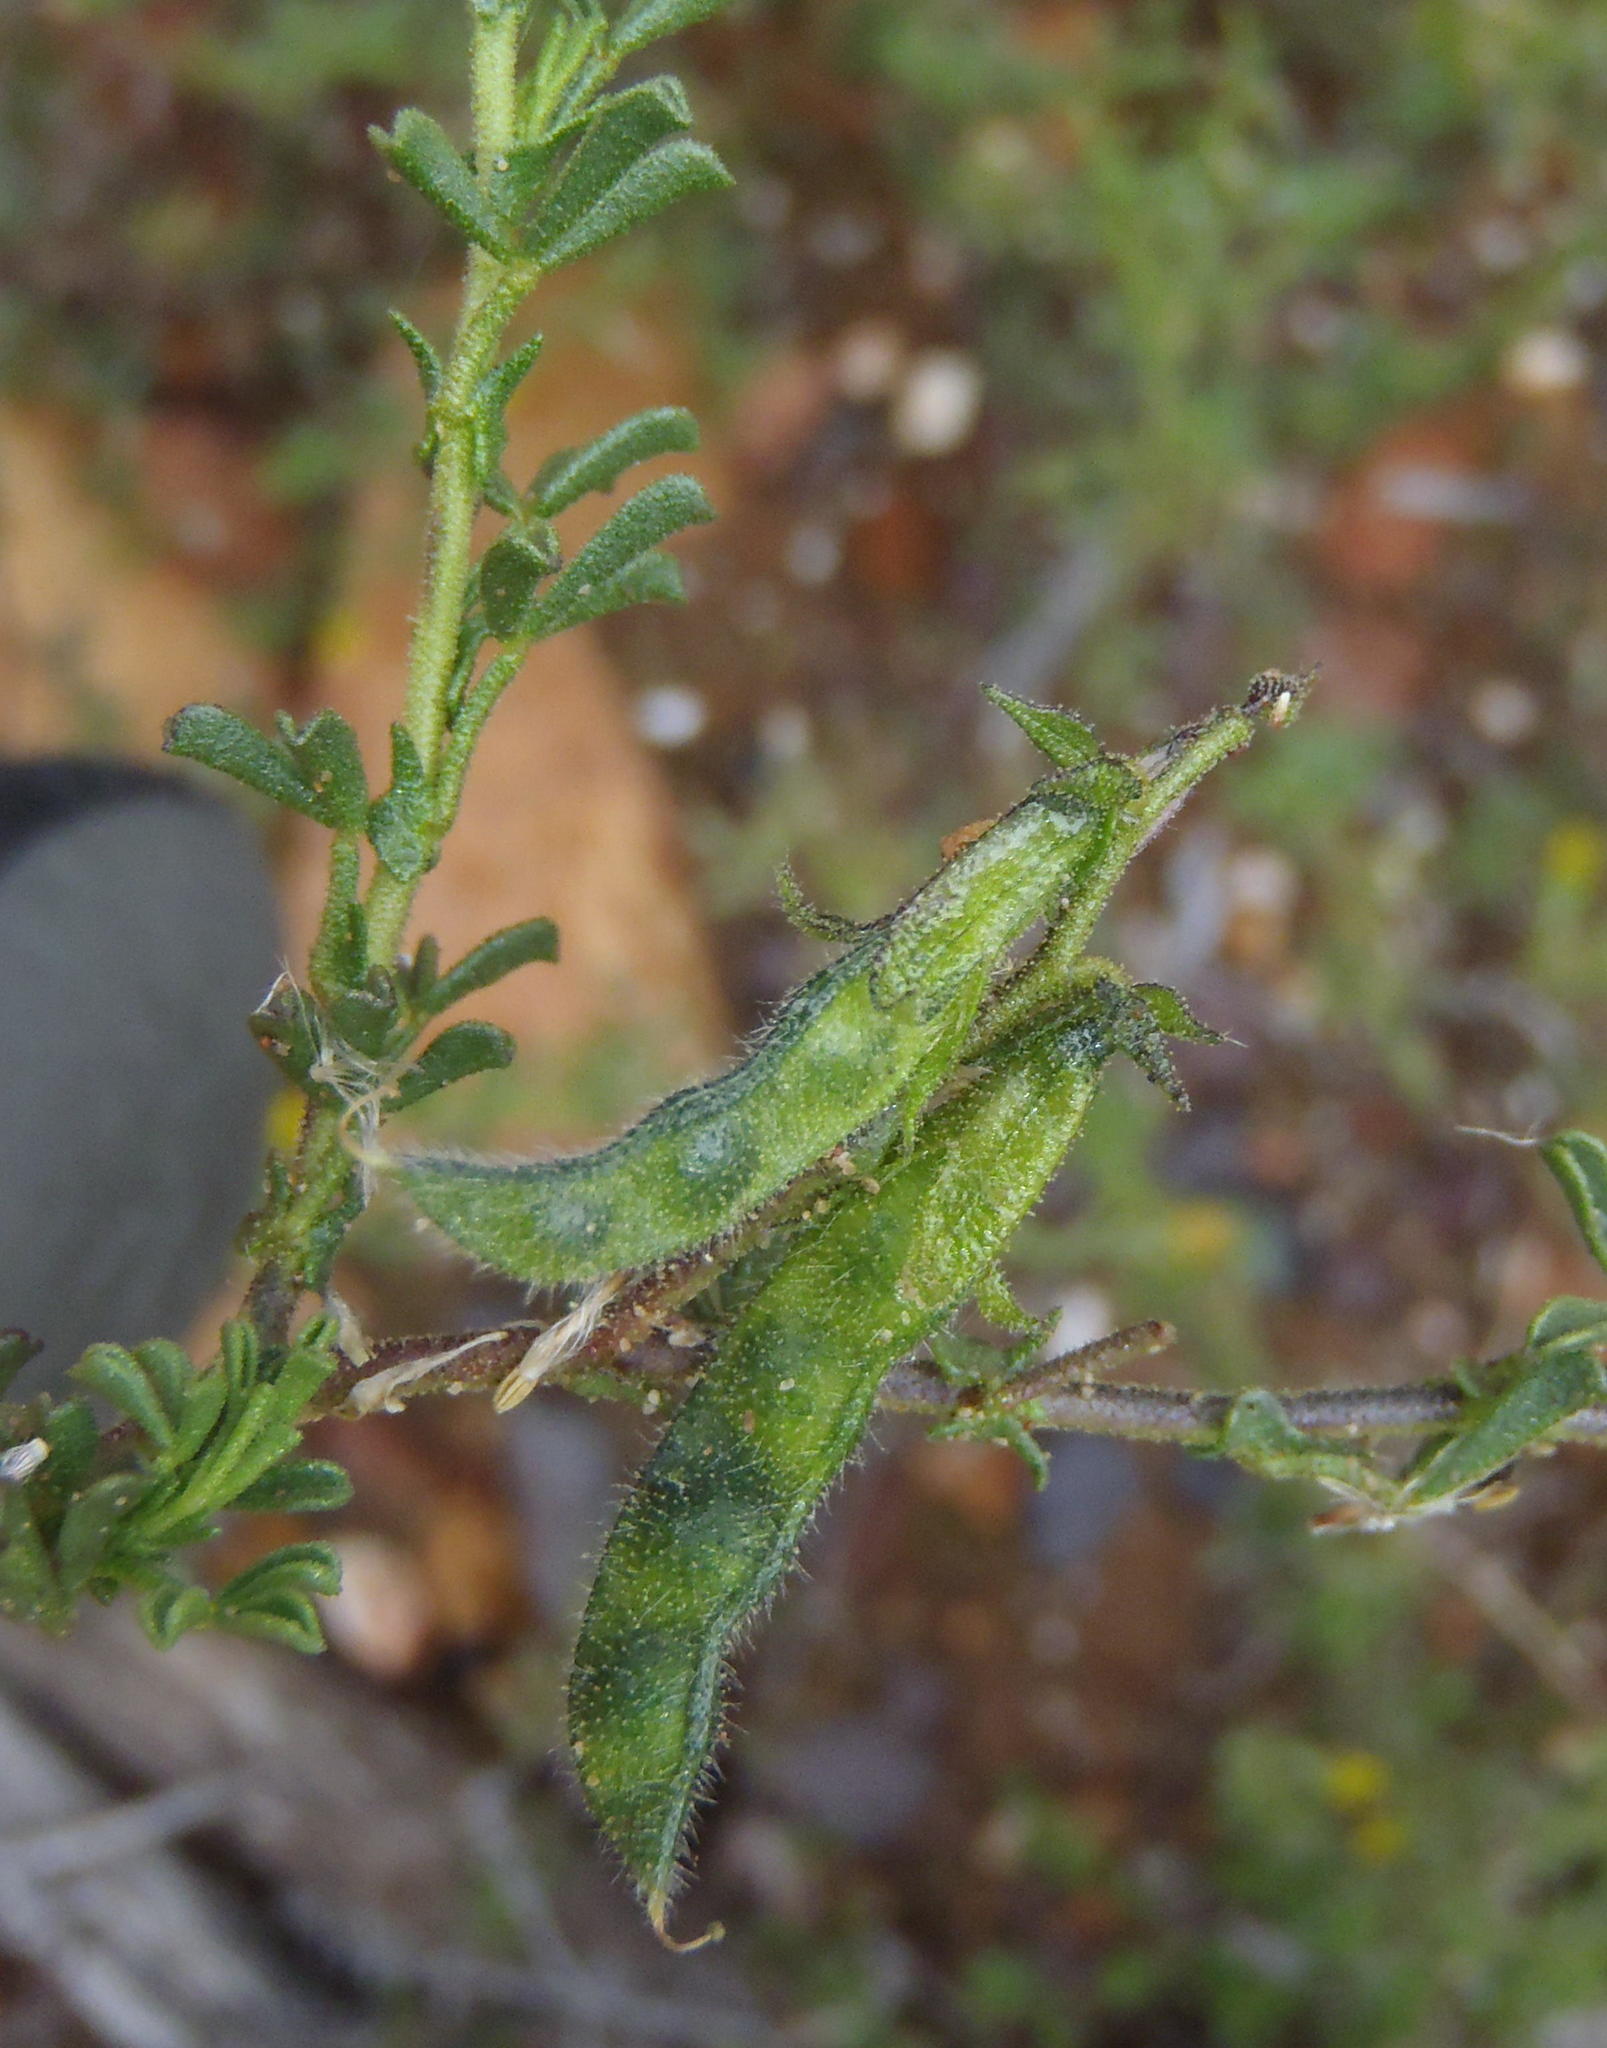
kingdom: Plantae
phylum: Tracheophyta
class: Magnoliopsida
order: Fabales
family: Fabaceae
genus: Melolobium
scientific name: Melolobium adenodes
